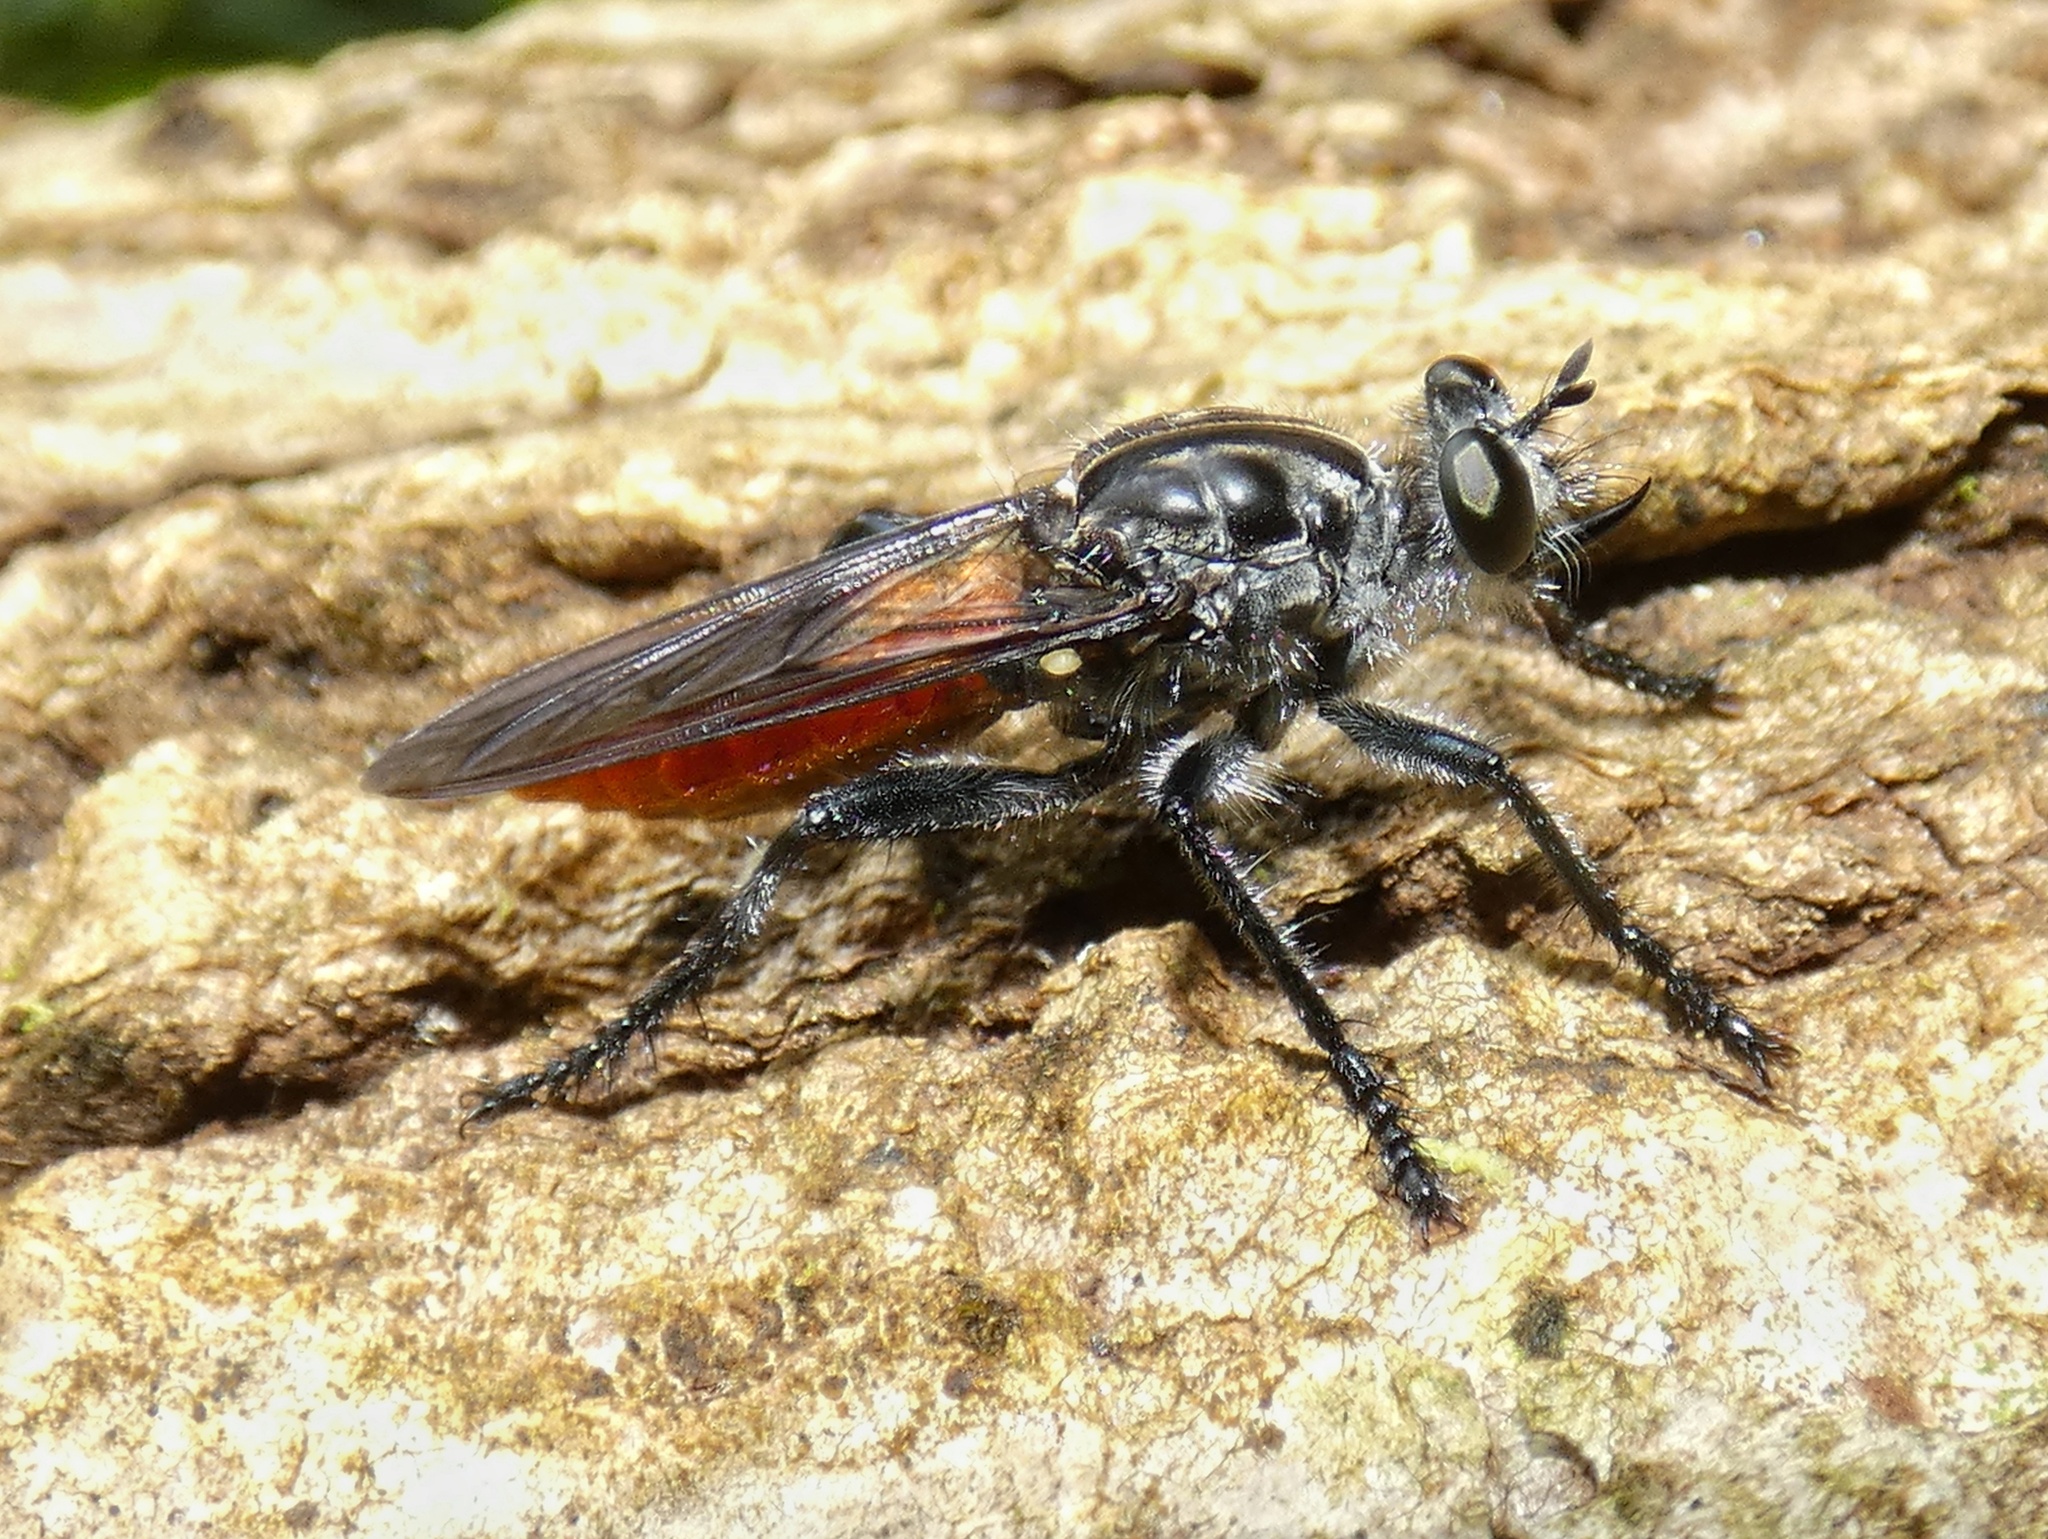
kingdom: Animalia
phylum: Arthropoda
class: Insecta
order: Diptera
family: Asilidae
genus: Pilica
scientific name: Pilica
